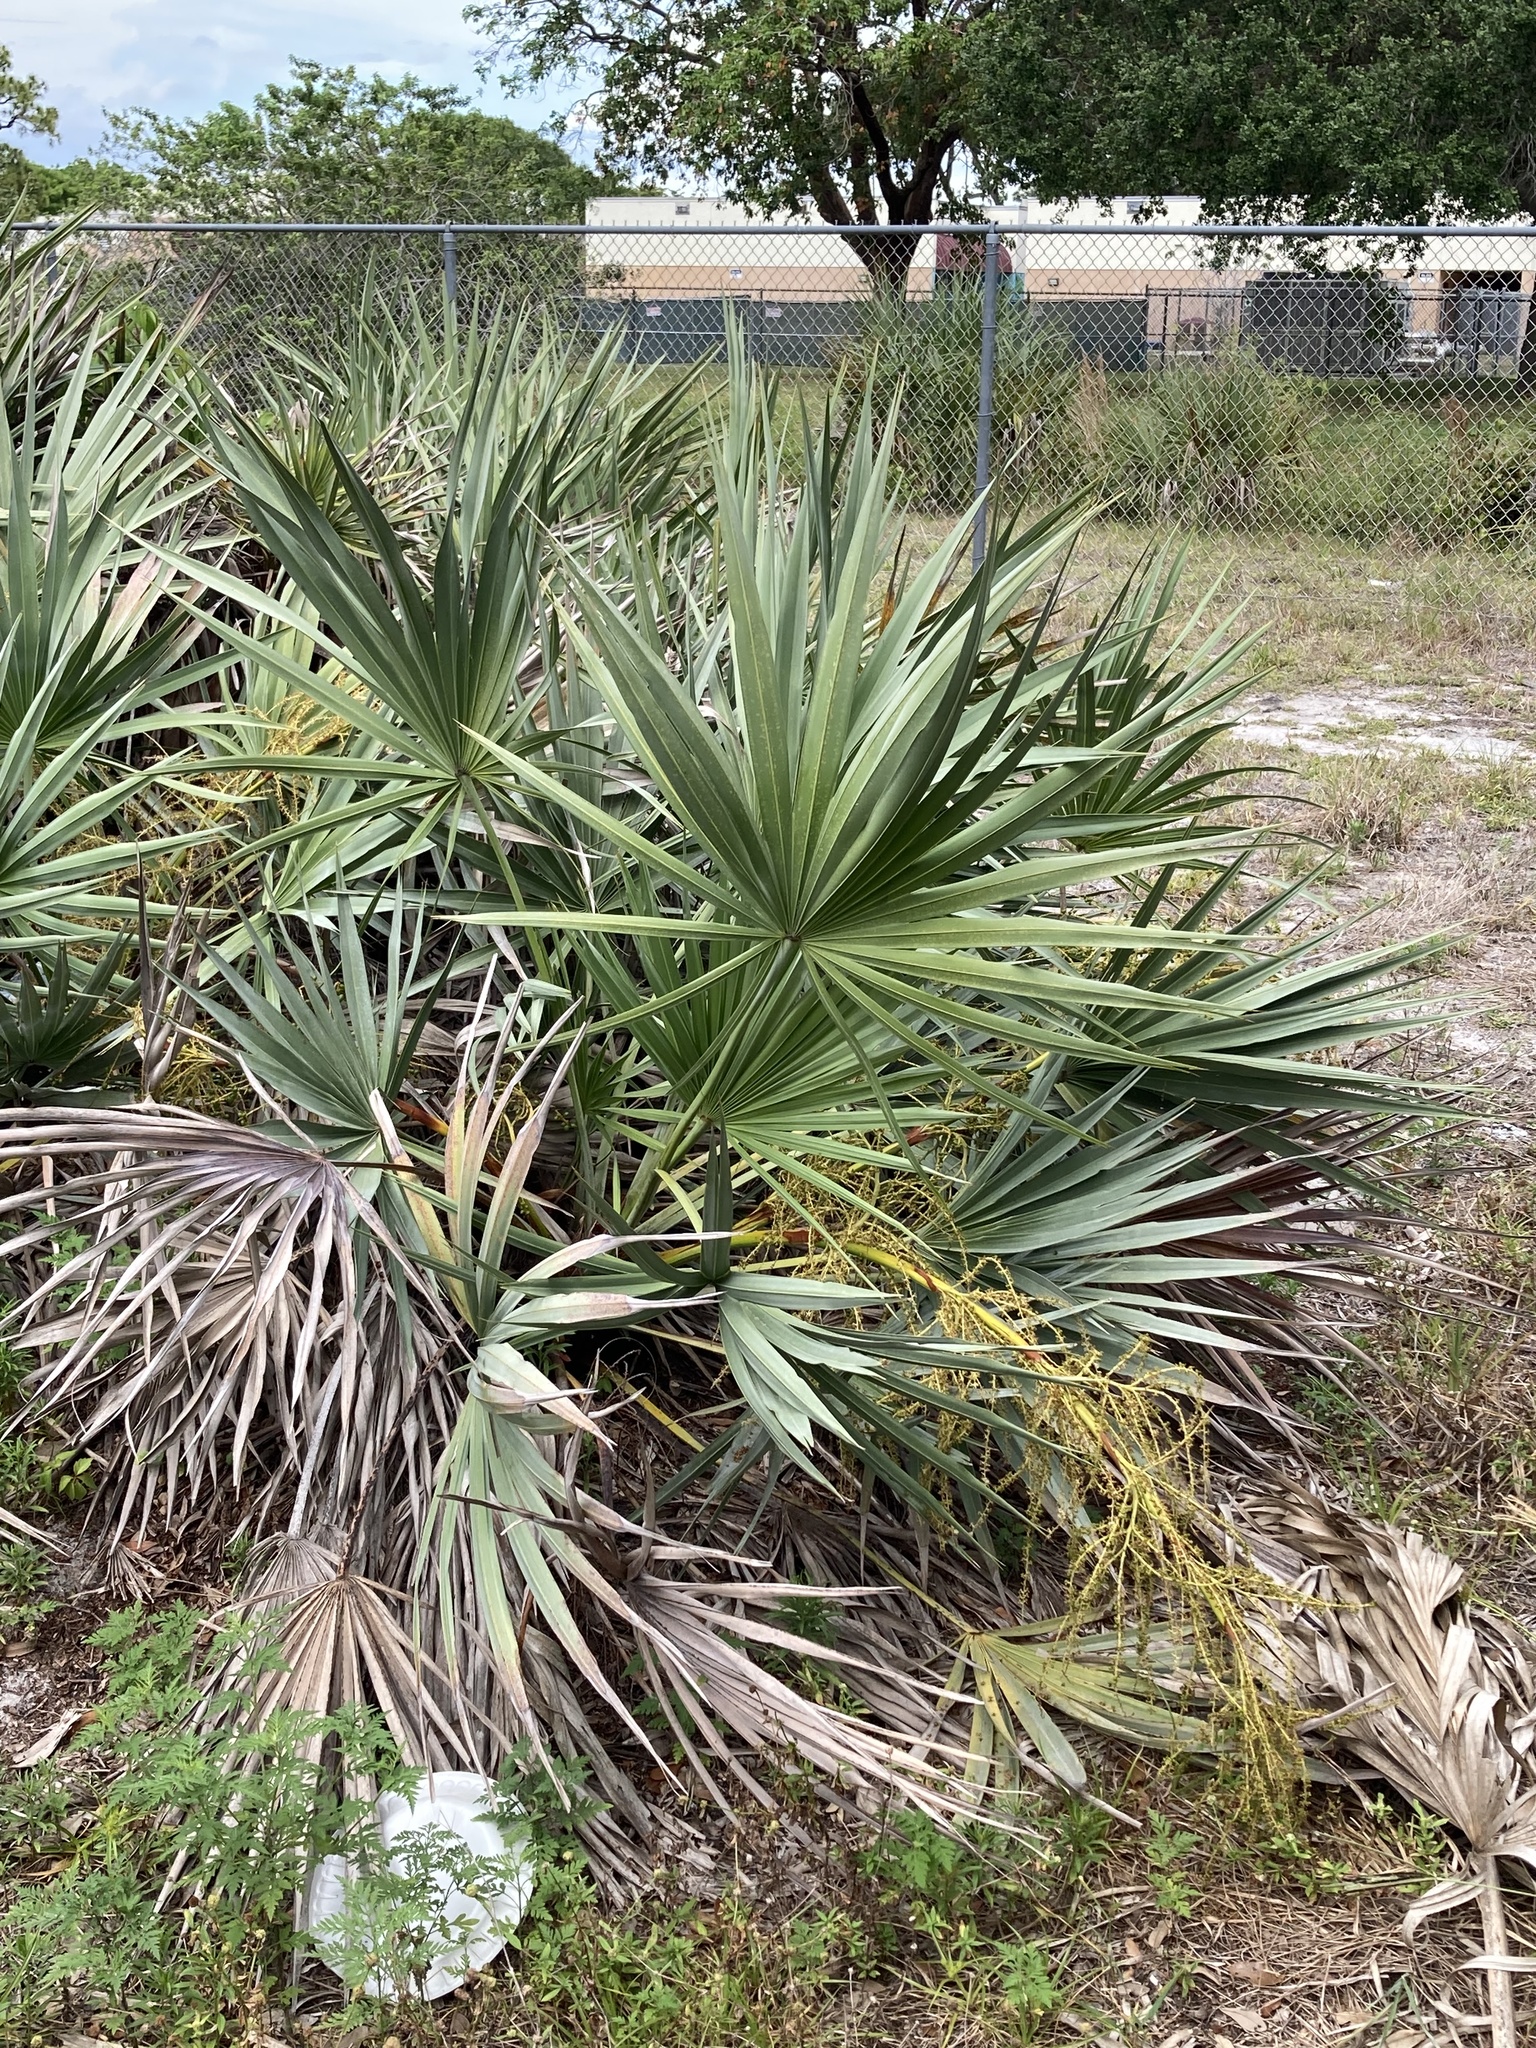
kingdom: Plantae
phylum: Tracheophyta
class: Liliopsida
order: Arecales
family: Arecaceae
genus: Serenoa
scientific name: Serenoa repens
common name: Saw-palmetto
